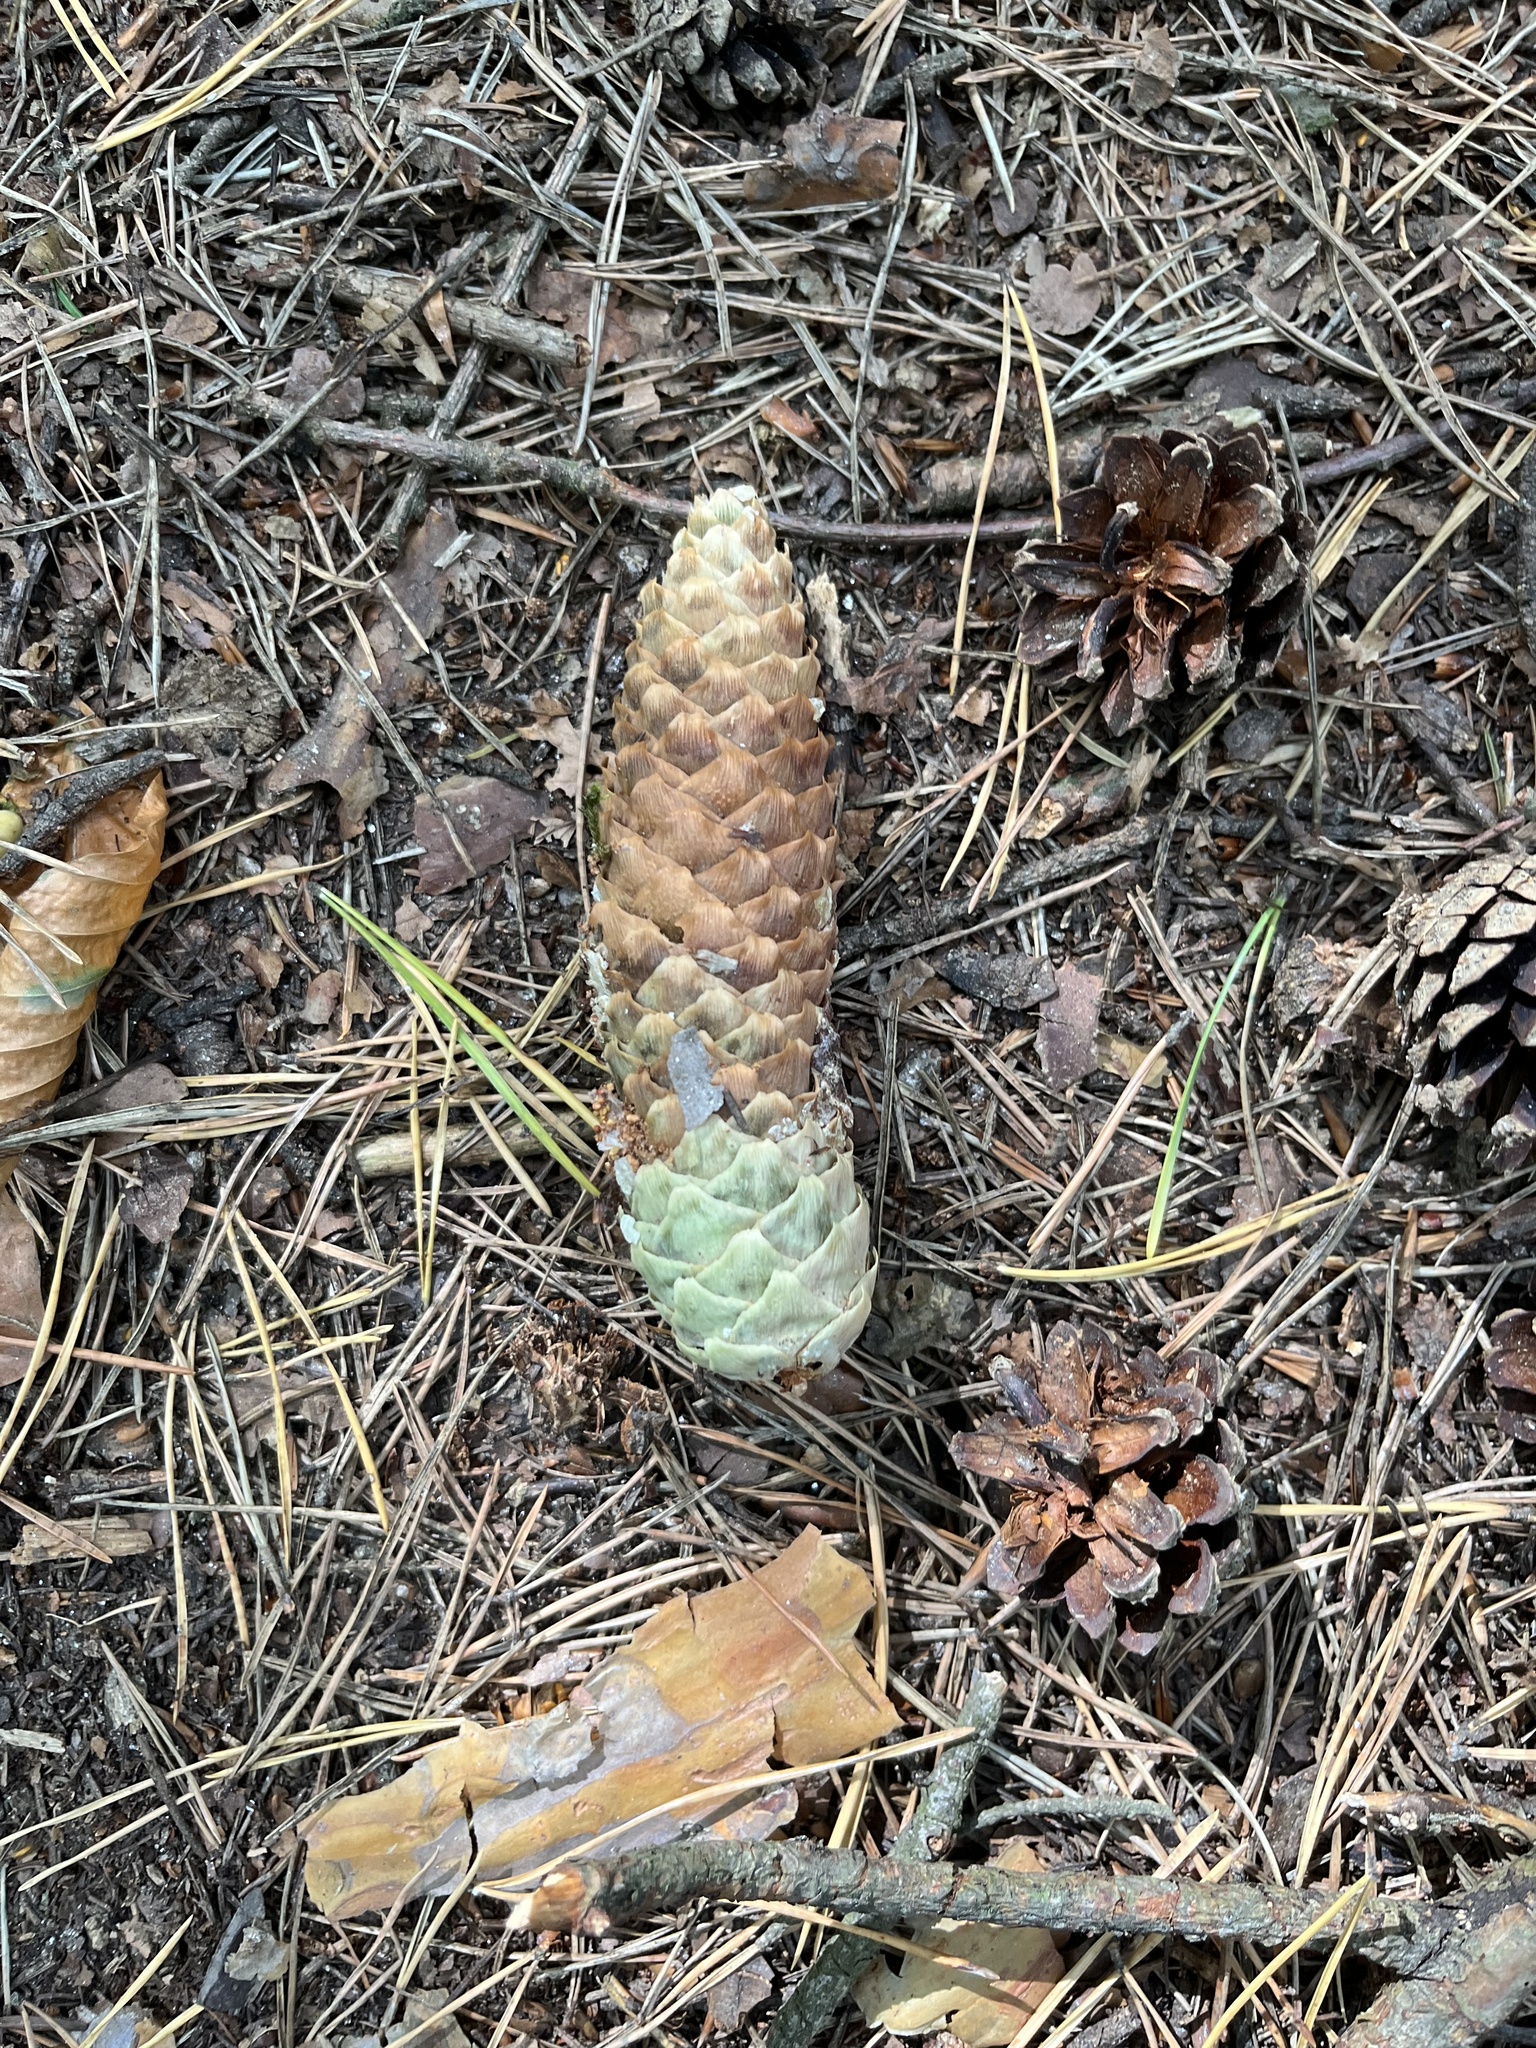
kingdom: Plantae
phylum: Tracheophyta
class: Pinopsida
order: Pinales
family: Pinaceae
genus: Picea
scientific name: Picea abies
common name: Norway spruce
